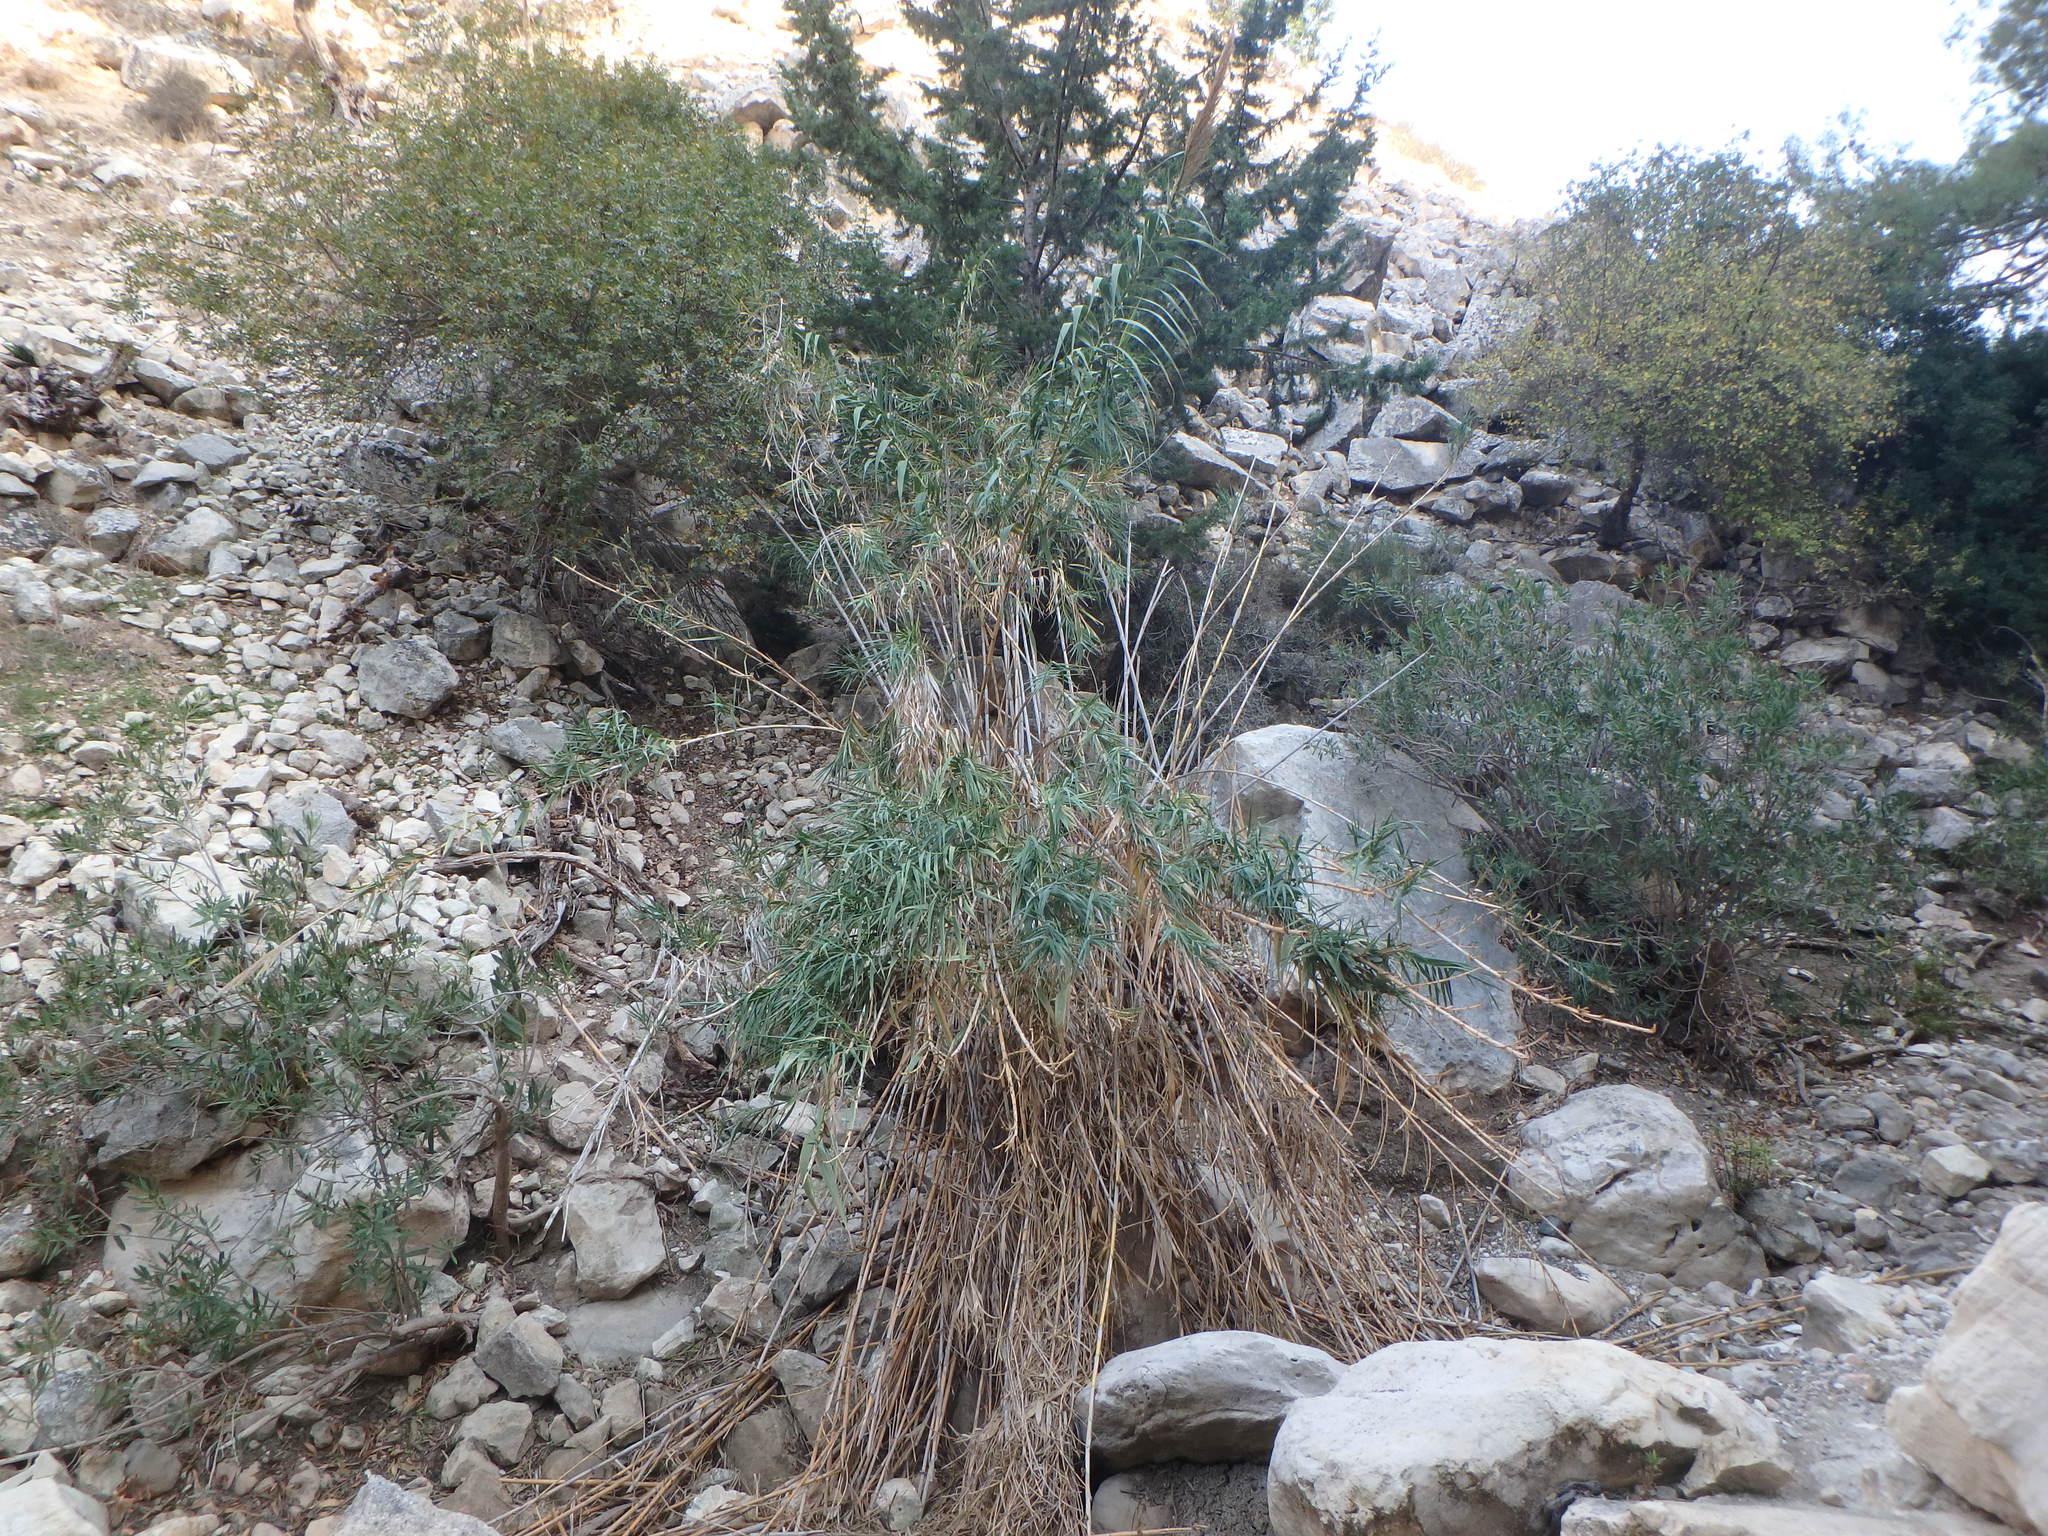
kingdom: Plantae
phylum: Tracheophyta
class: Liliopsida
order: Poales
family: Poaceae
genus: Arundo
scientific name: Arundo donax
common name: Giant reed
